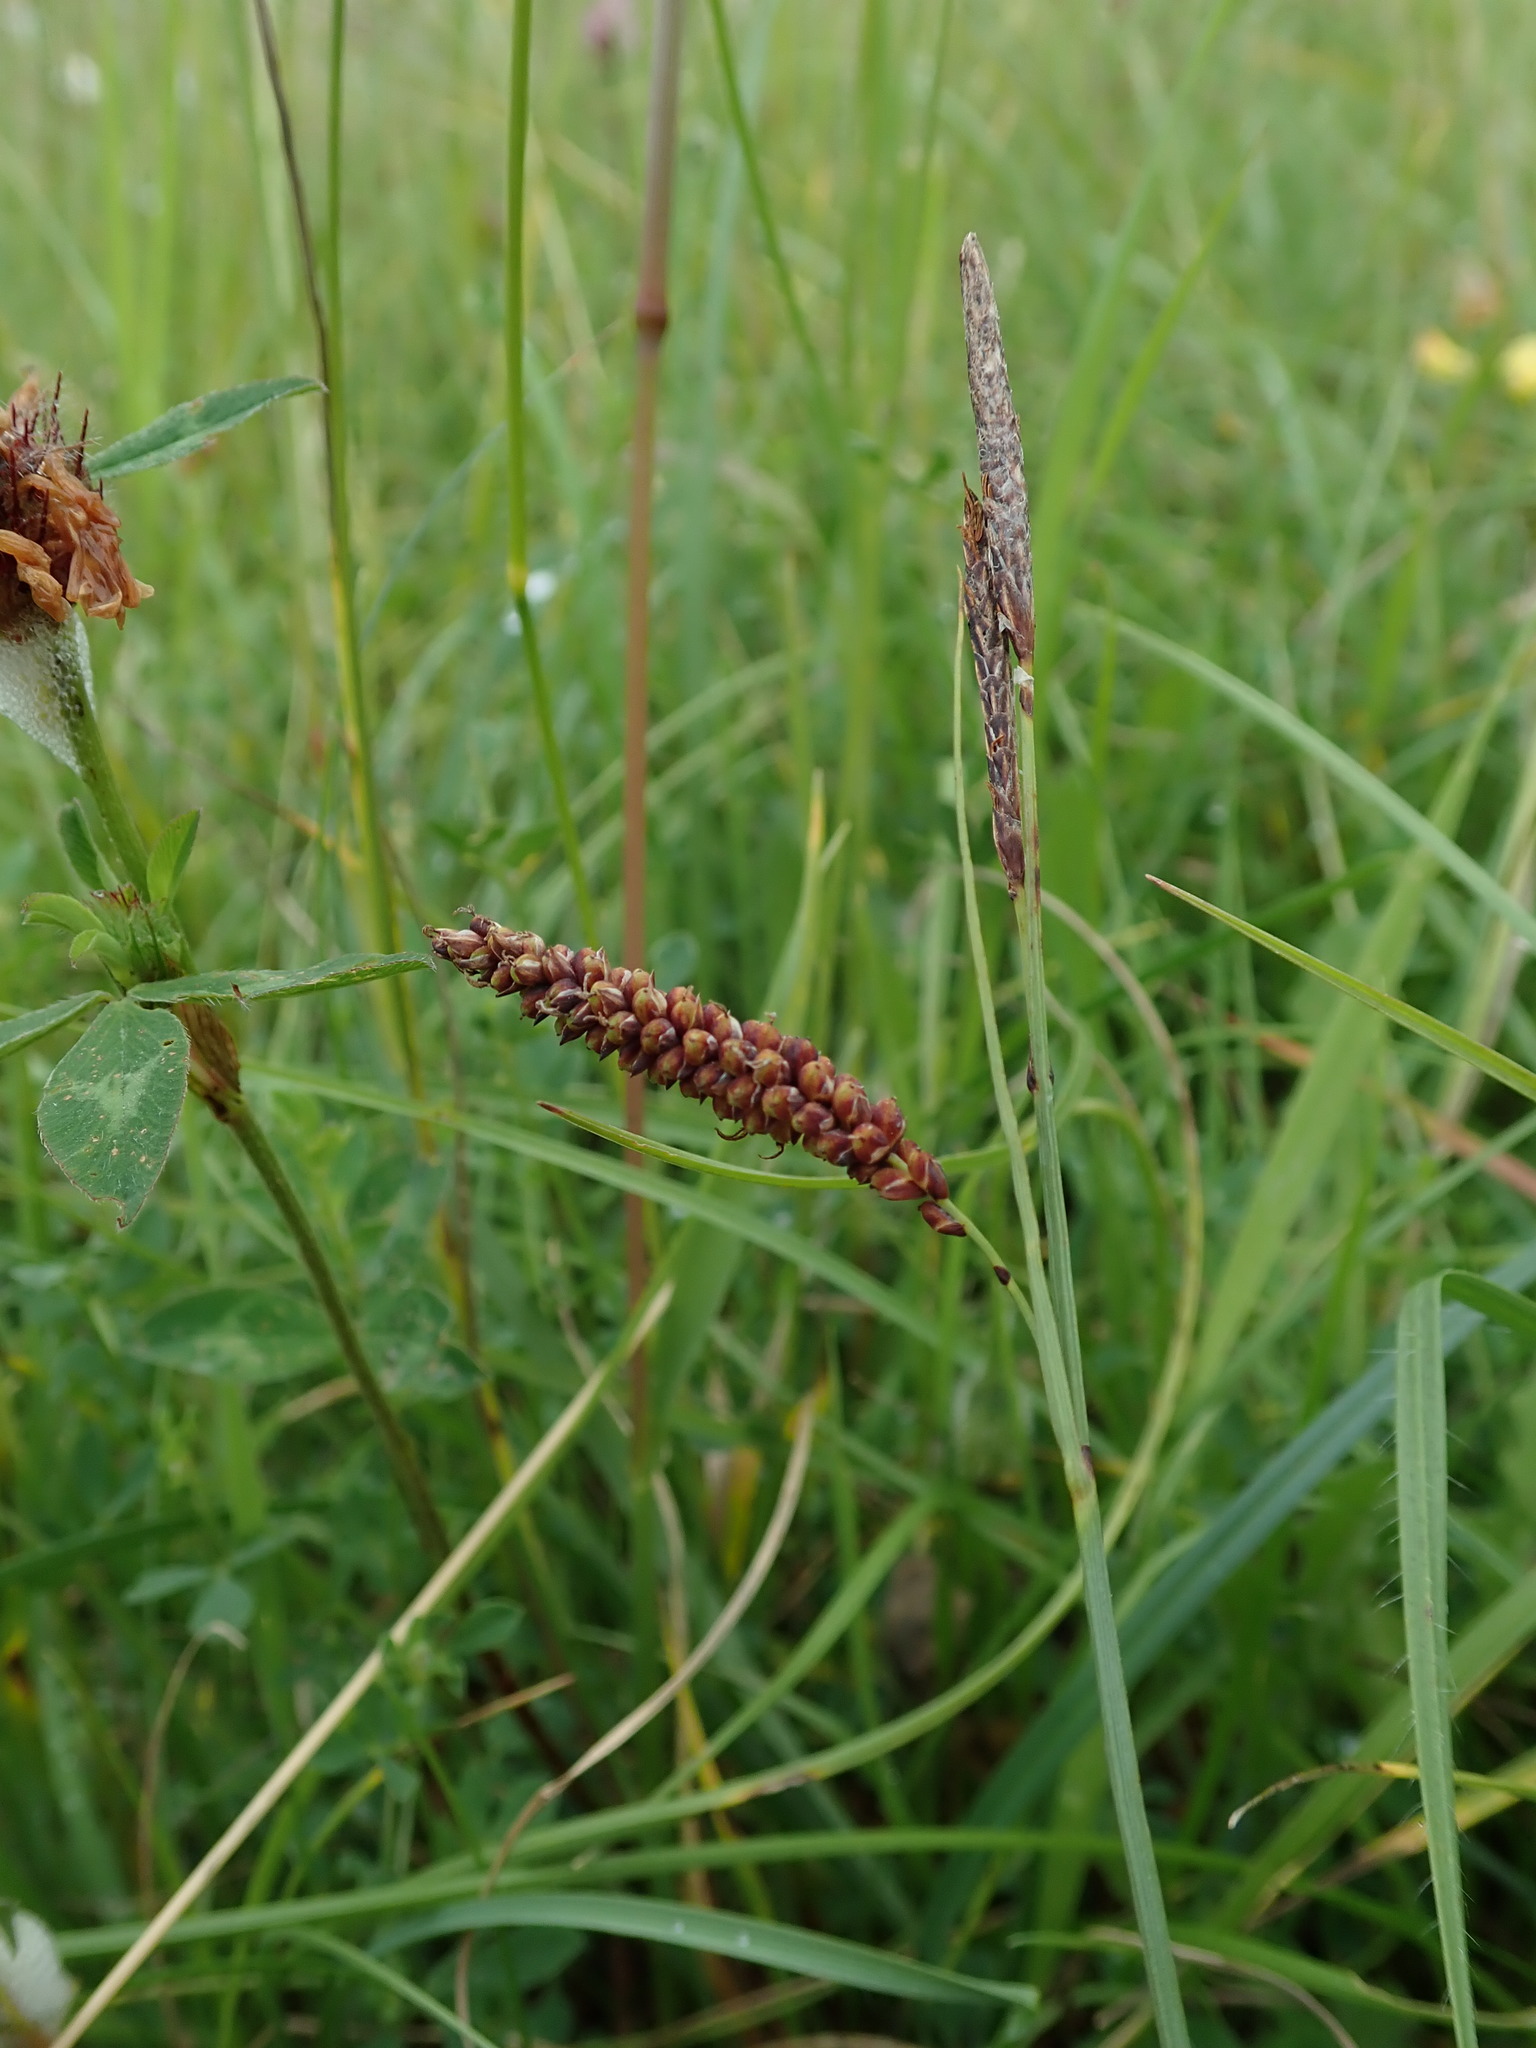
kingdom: Plantae
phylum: Tracheophyta
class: Liliopsida
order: Poales
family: Cyperaceae
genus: Carex
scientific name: Carex flacca
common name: Glaucous sedge
